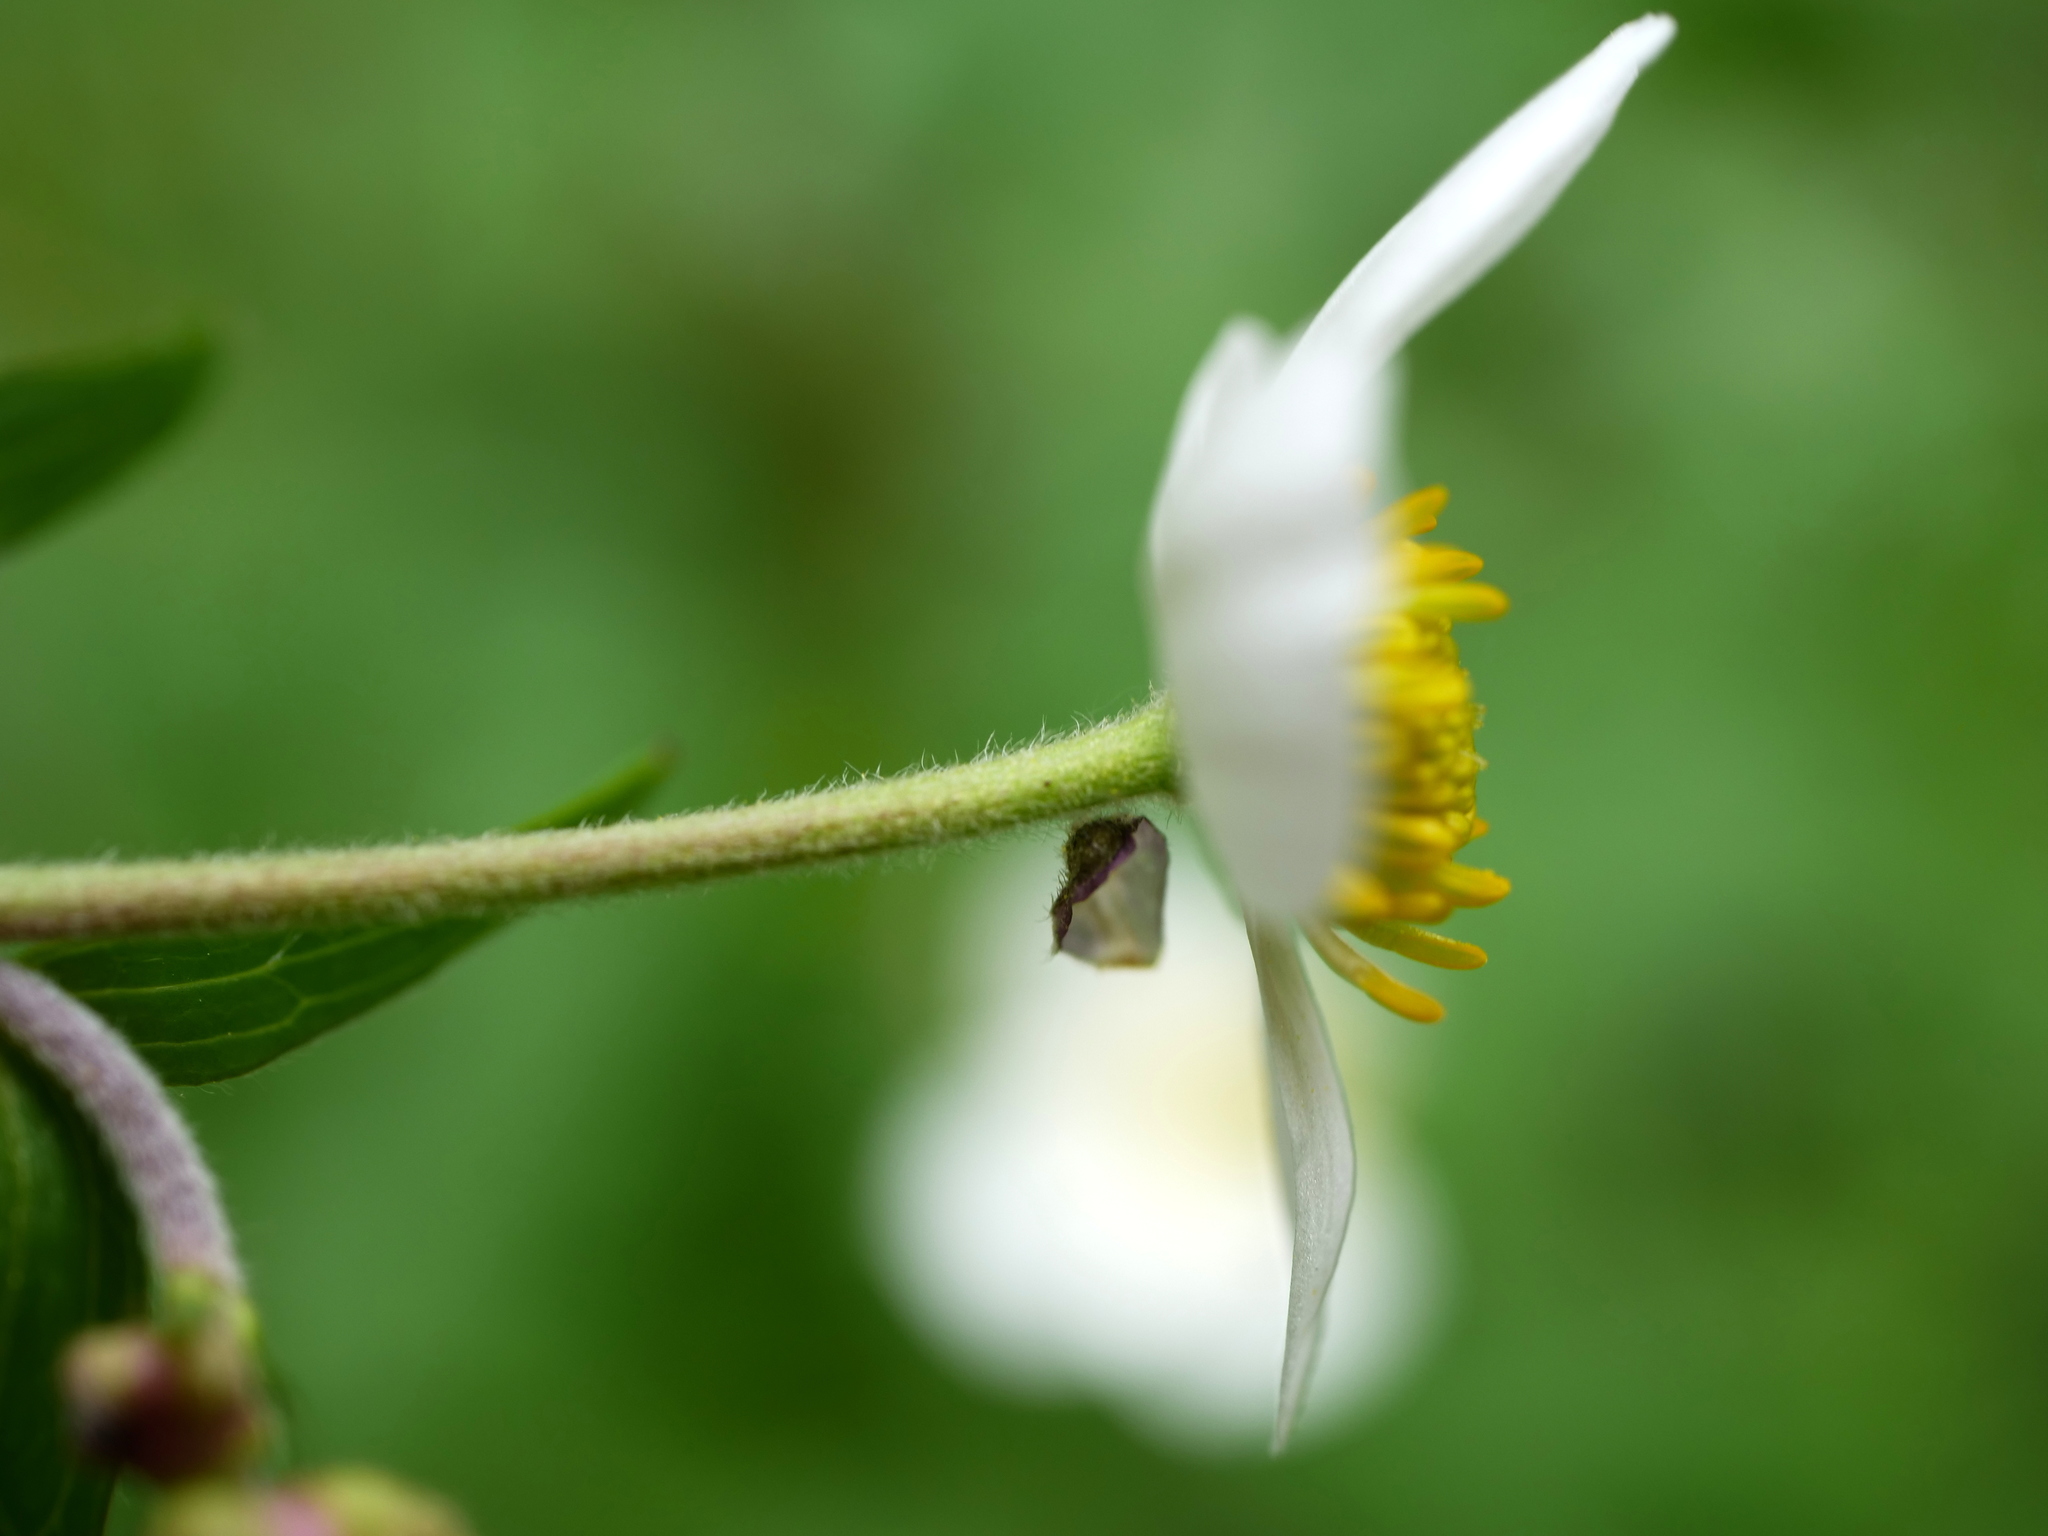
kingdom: Plantae
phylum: Tracheophyta
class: Magnoliopsida
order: Ranunculales
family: Ranunculaceae
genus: Ranunculus
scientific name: Ranunculus aconitifolius
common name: Aconite-leaved buttercup
